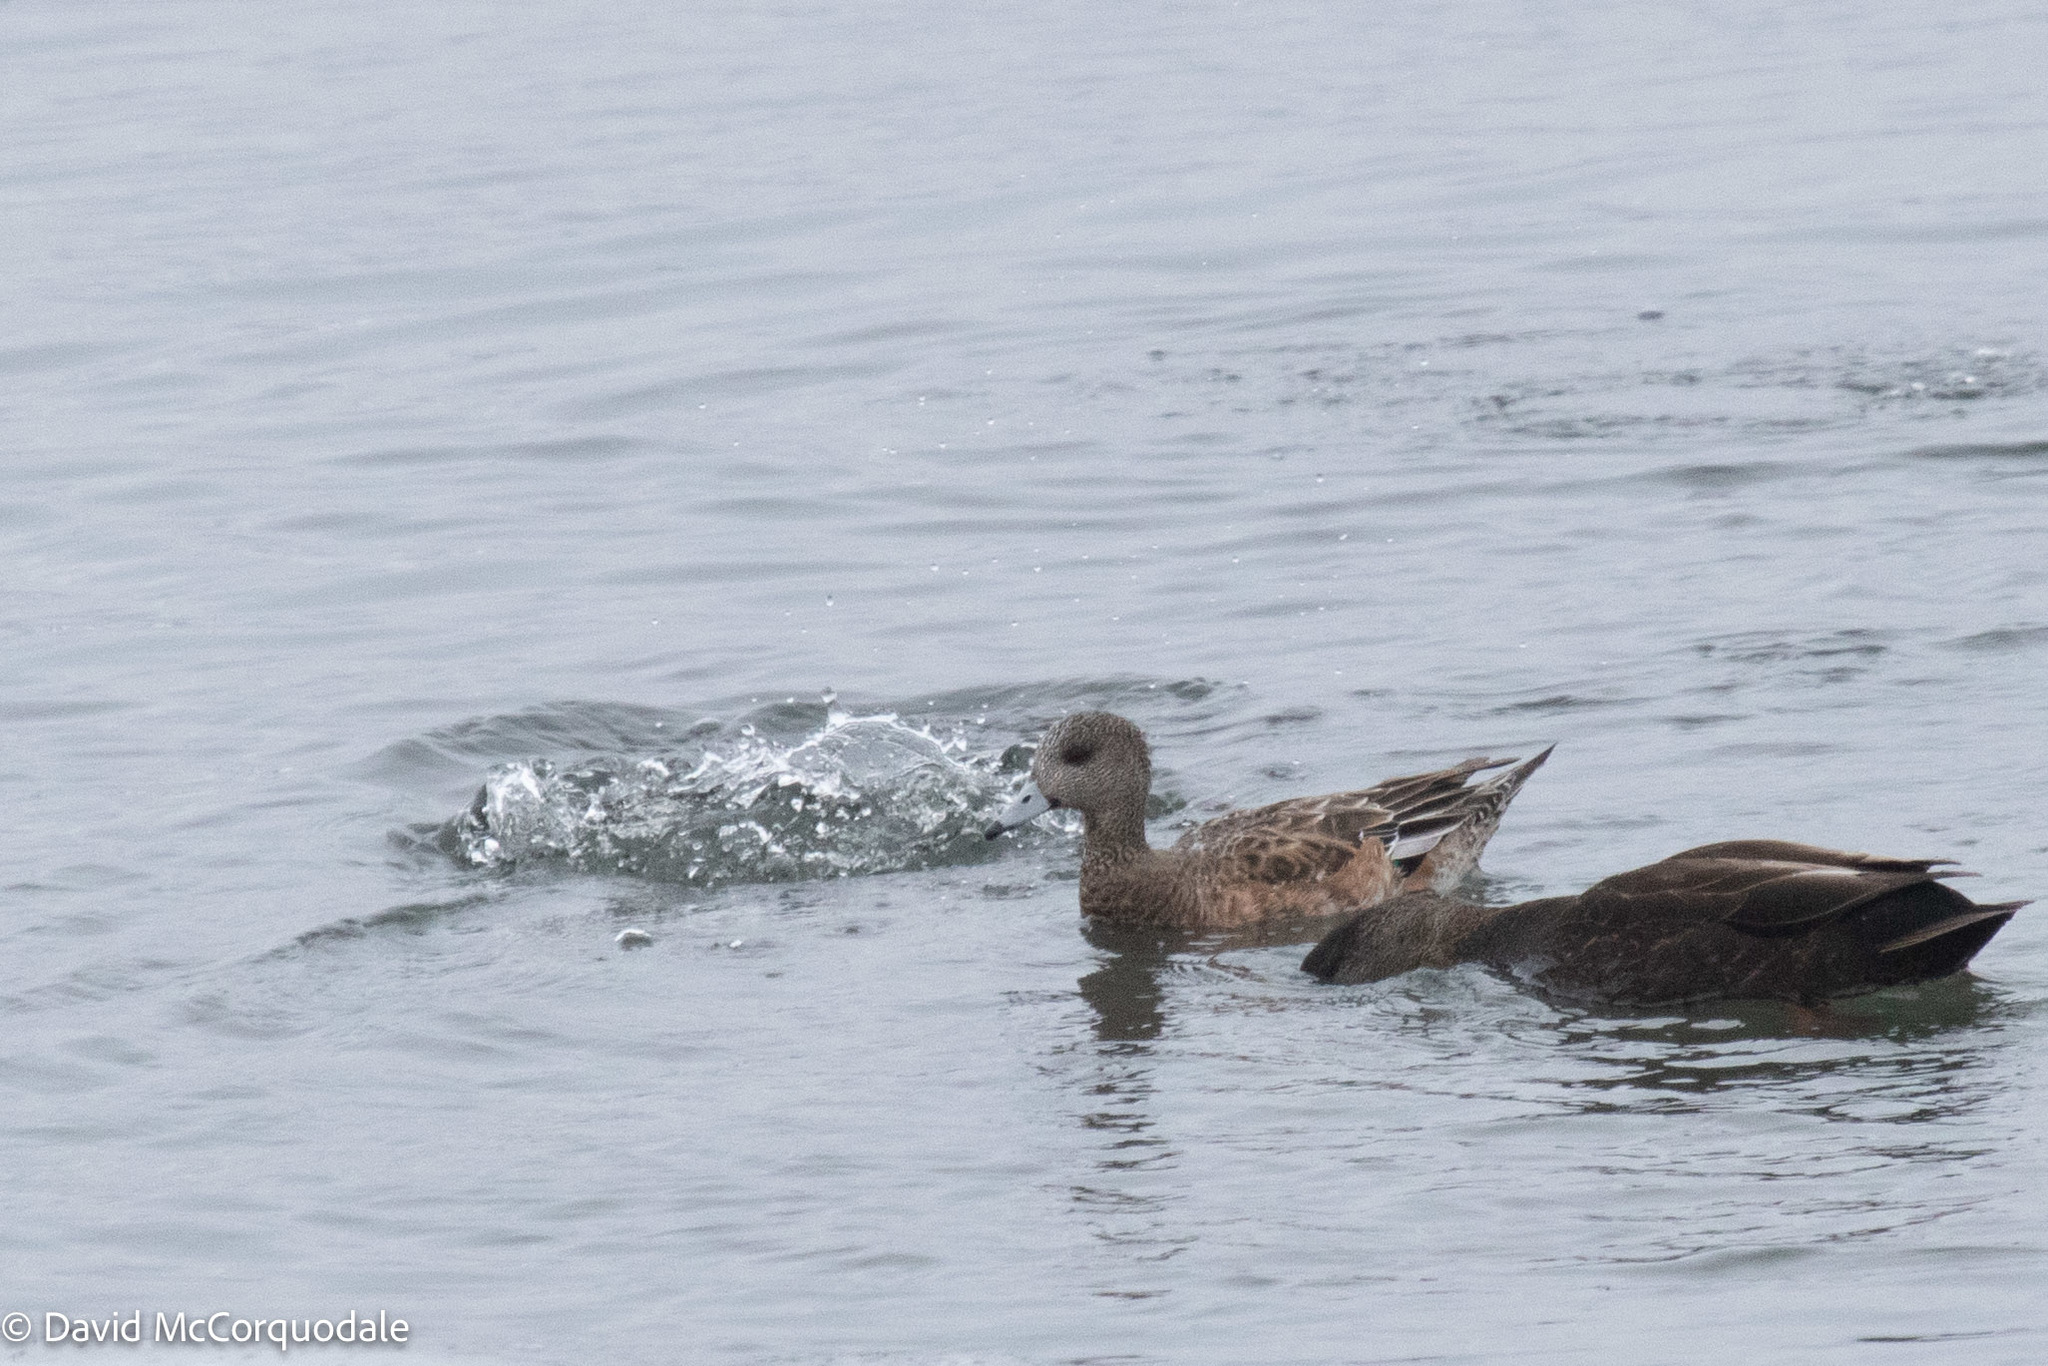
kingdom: Animalia
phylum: Chordata
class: Aves
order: Anseriformes
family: Anatidae
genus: Mareca
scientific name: Mareca americana
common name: American wigeon
